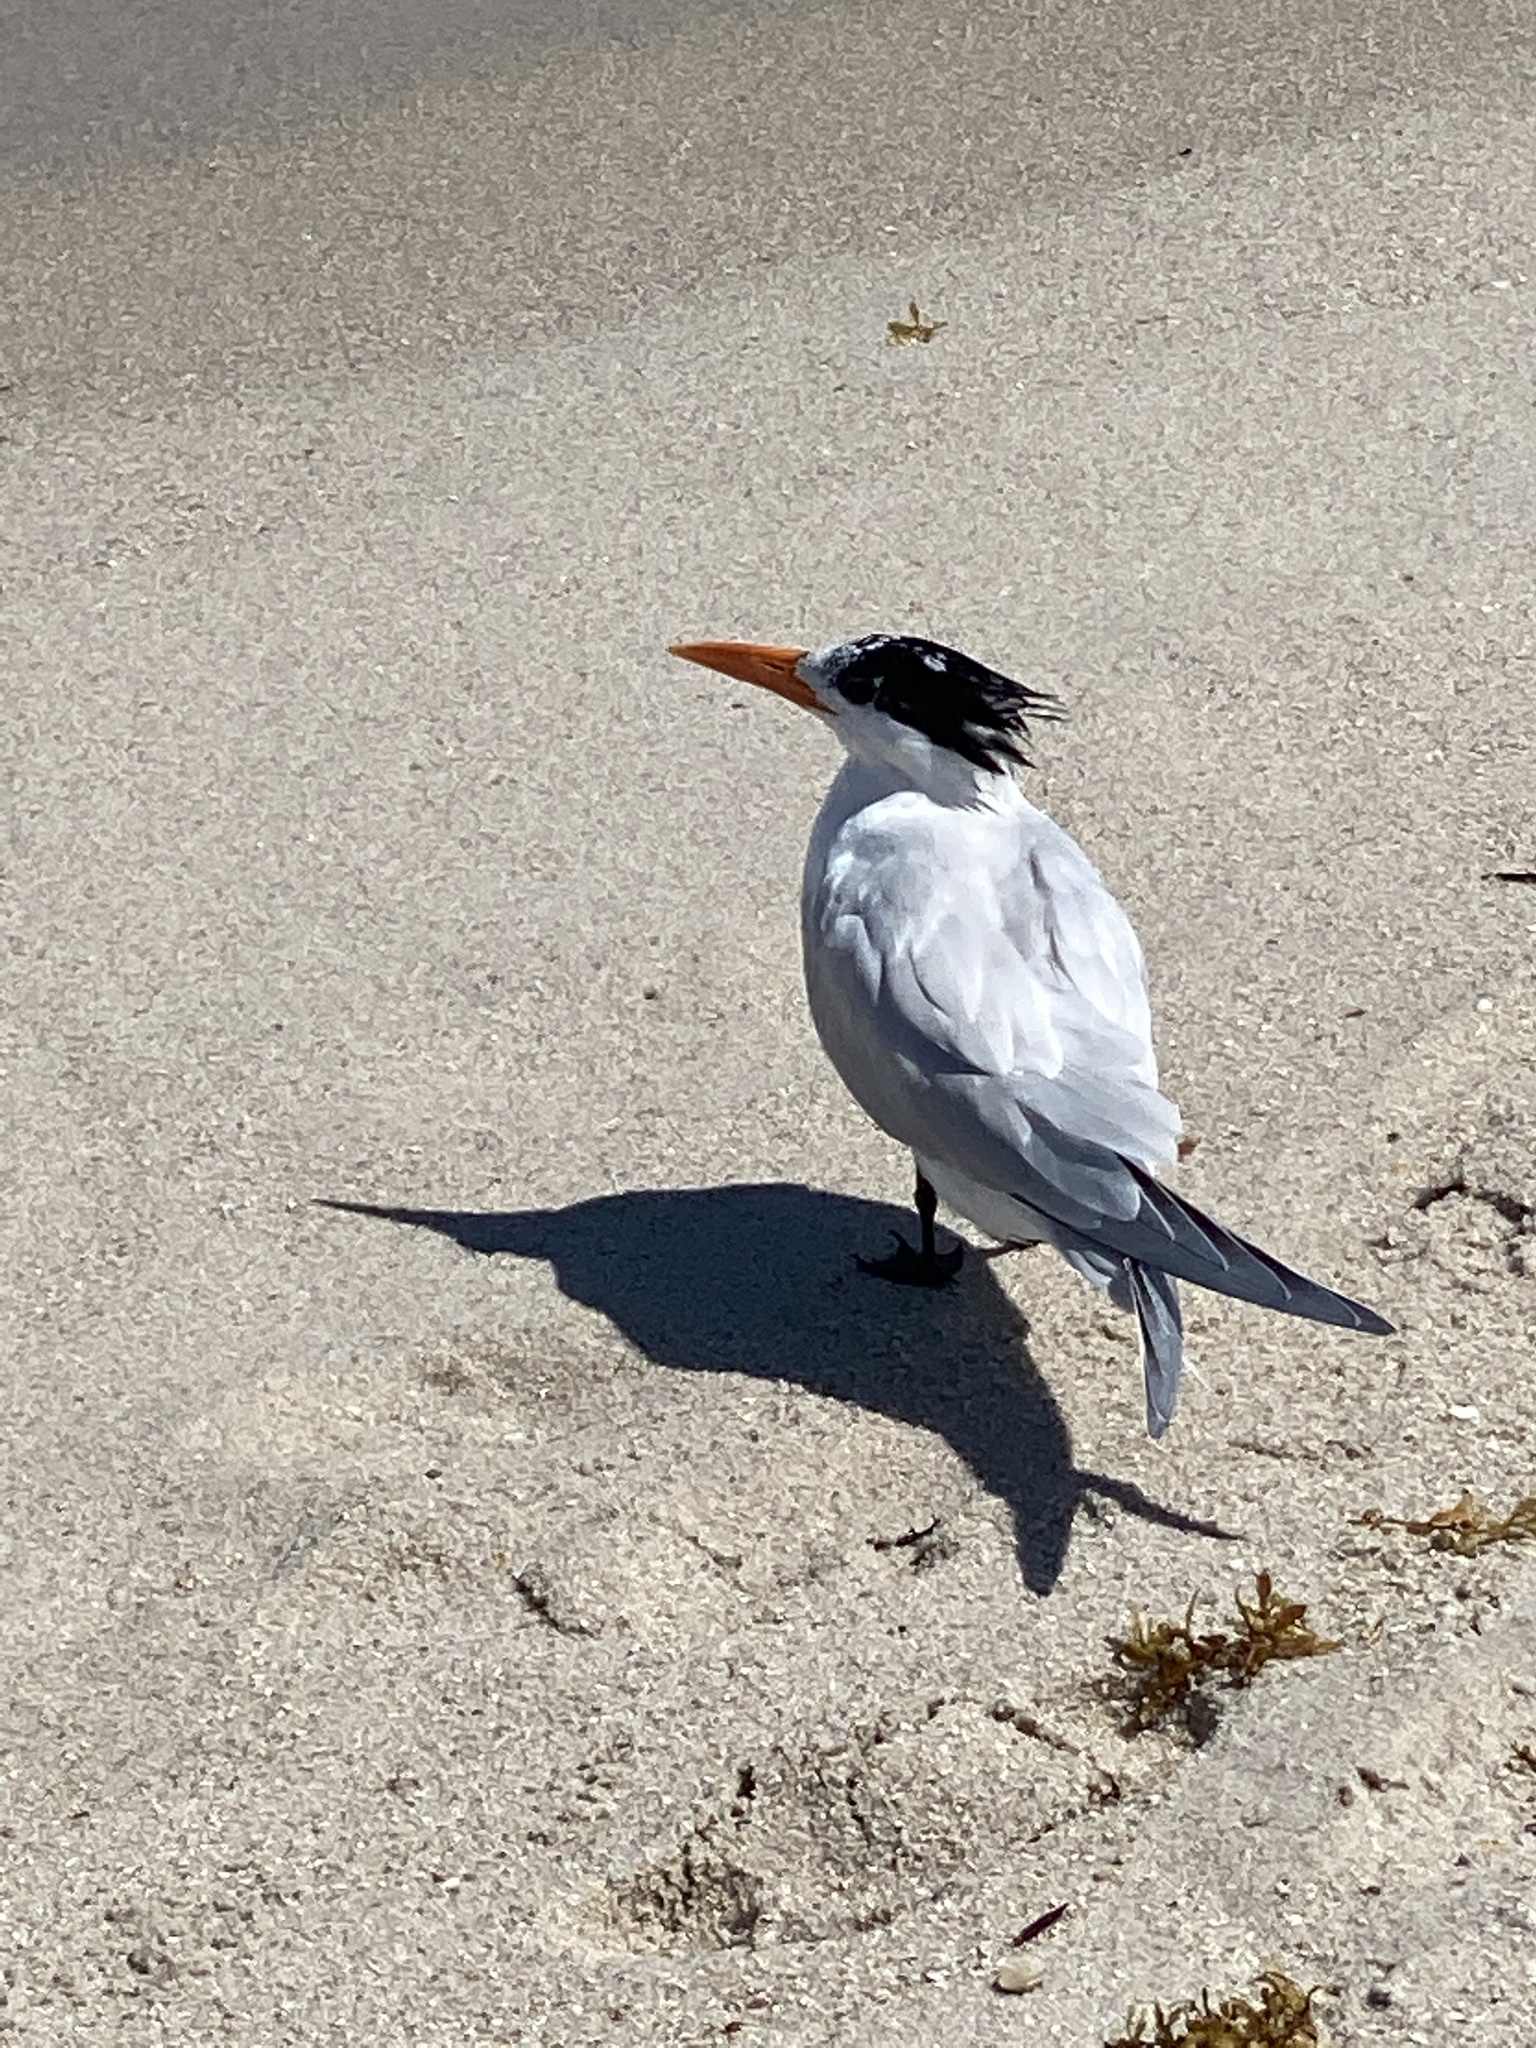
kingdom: Animalia
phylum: Chordata
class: Aves
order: Charadriiformes
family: Laridae
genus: Thalasseus
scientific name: Thalasseus maximus
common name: Royal tern
